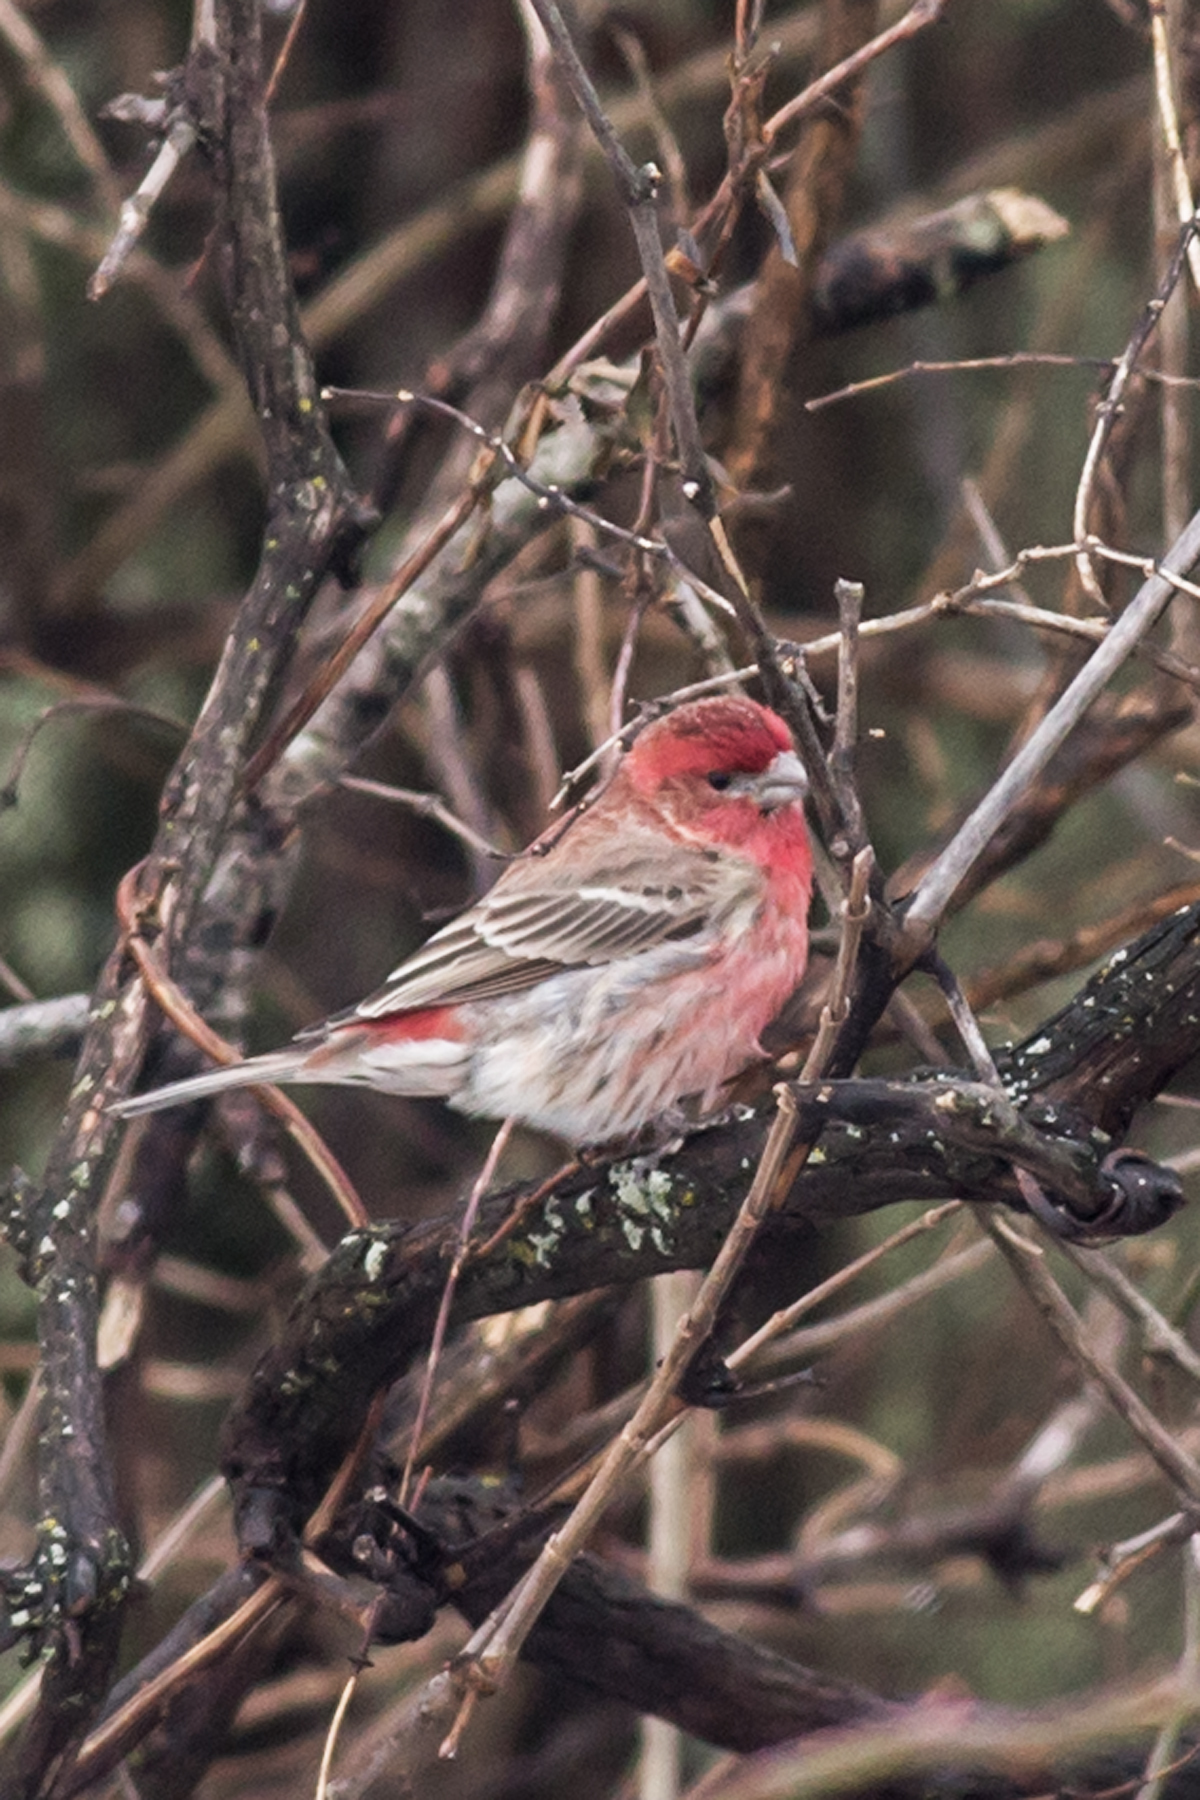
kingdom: Animalia
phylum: Chordata
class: Aves
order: Passeriformes
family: Fringillidae
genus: Haemorhous
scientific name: Haemorhous mexicanus
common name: House finch
